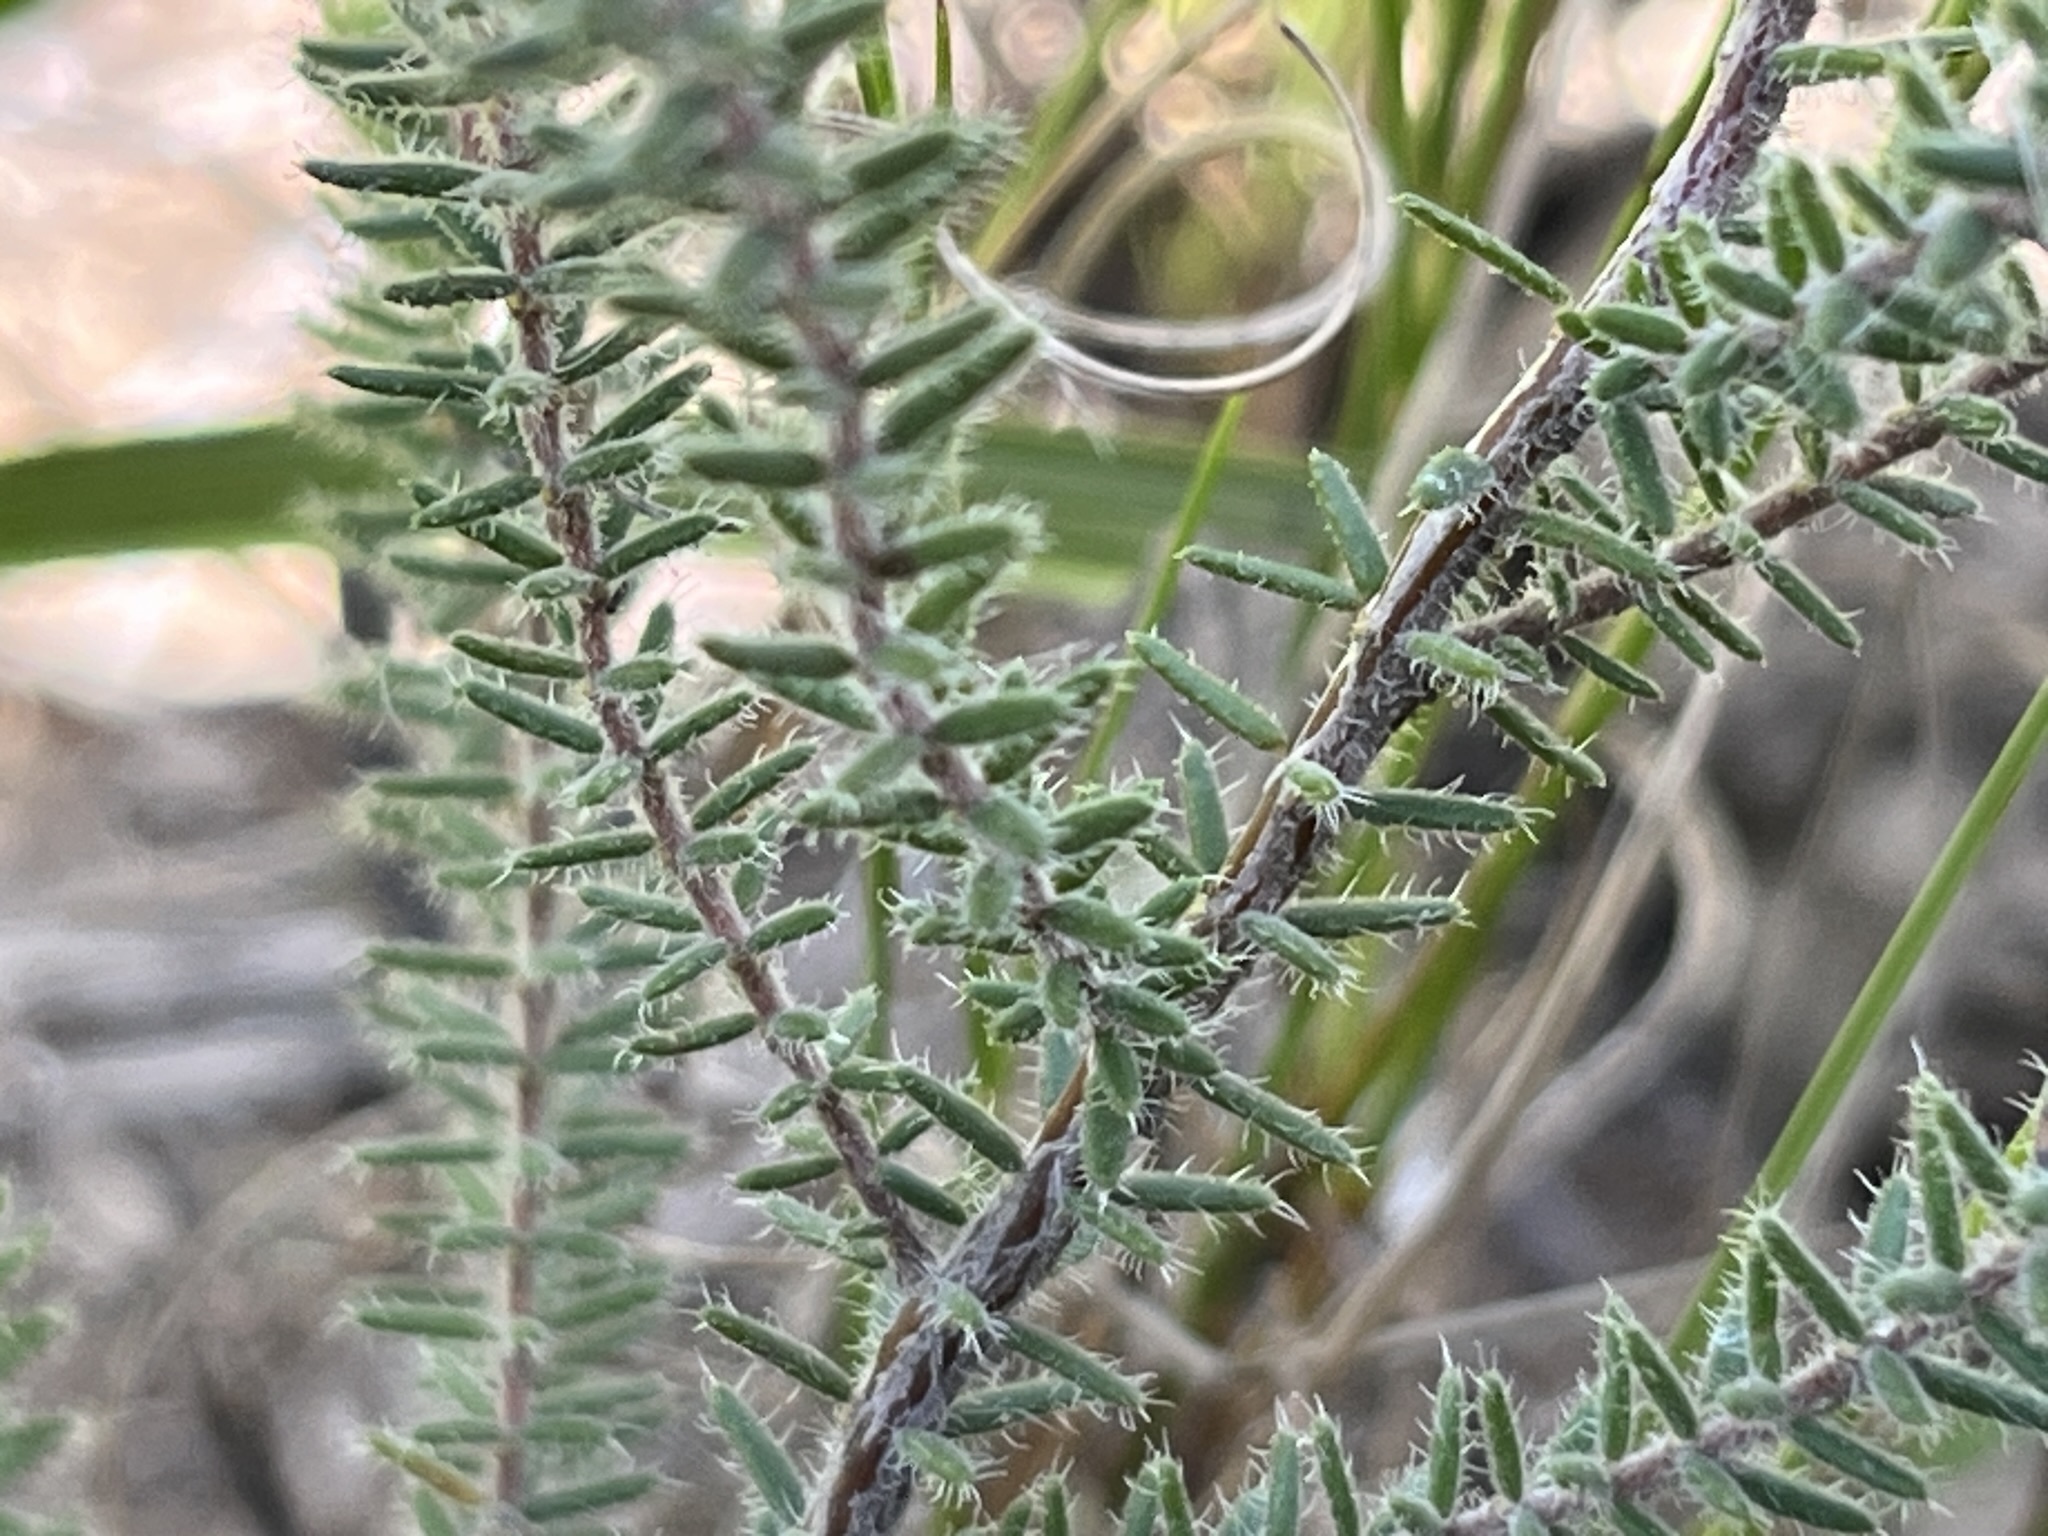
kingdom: Plantae
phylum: Tracheophyta
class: Magnoliopsida
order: Ericales
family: Ericaceae
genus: Erica
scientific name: Erica racemosa
